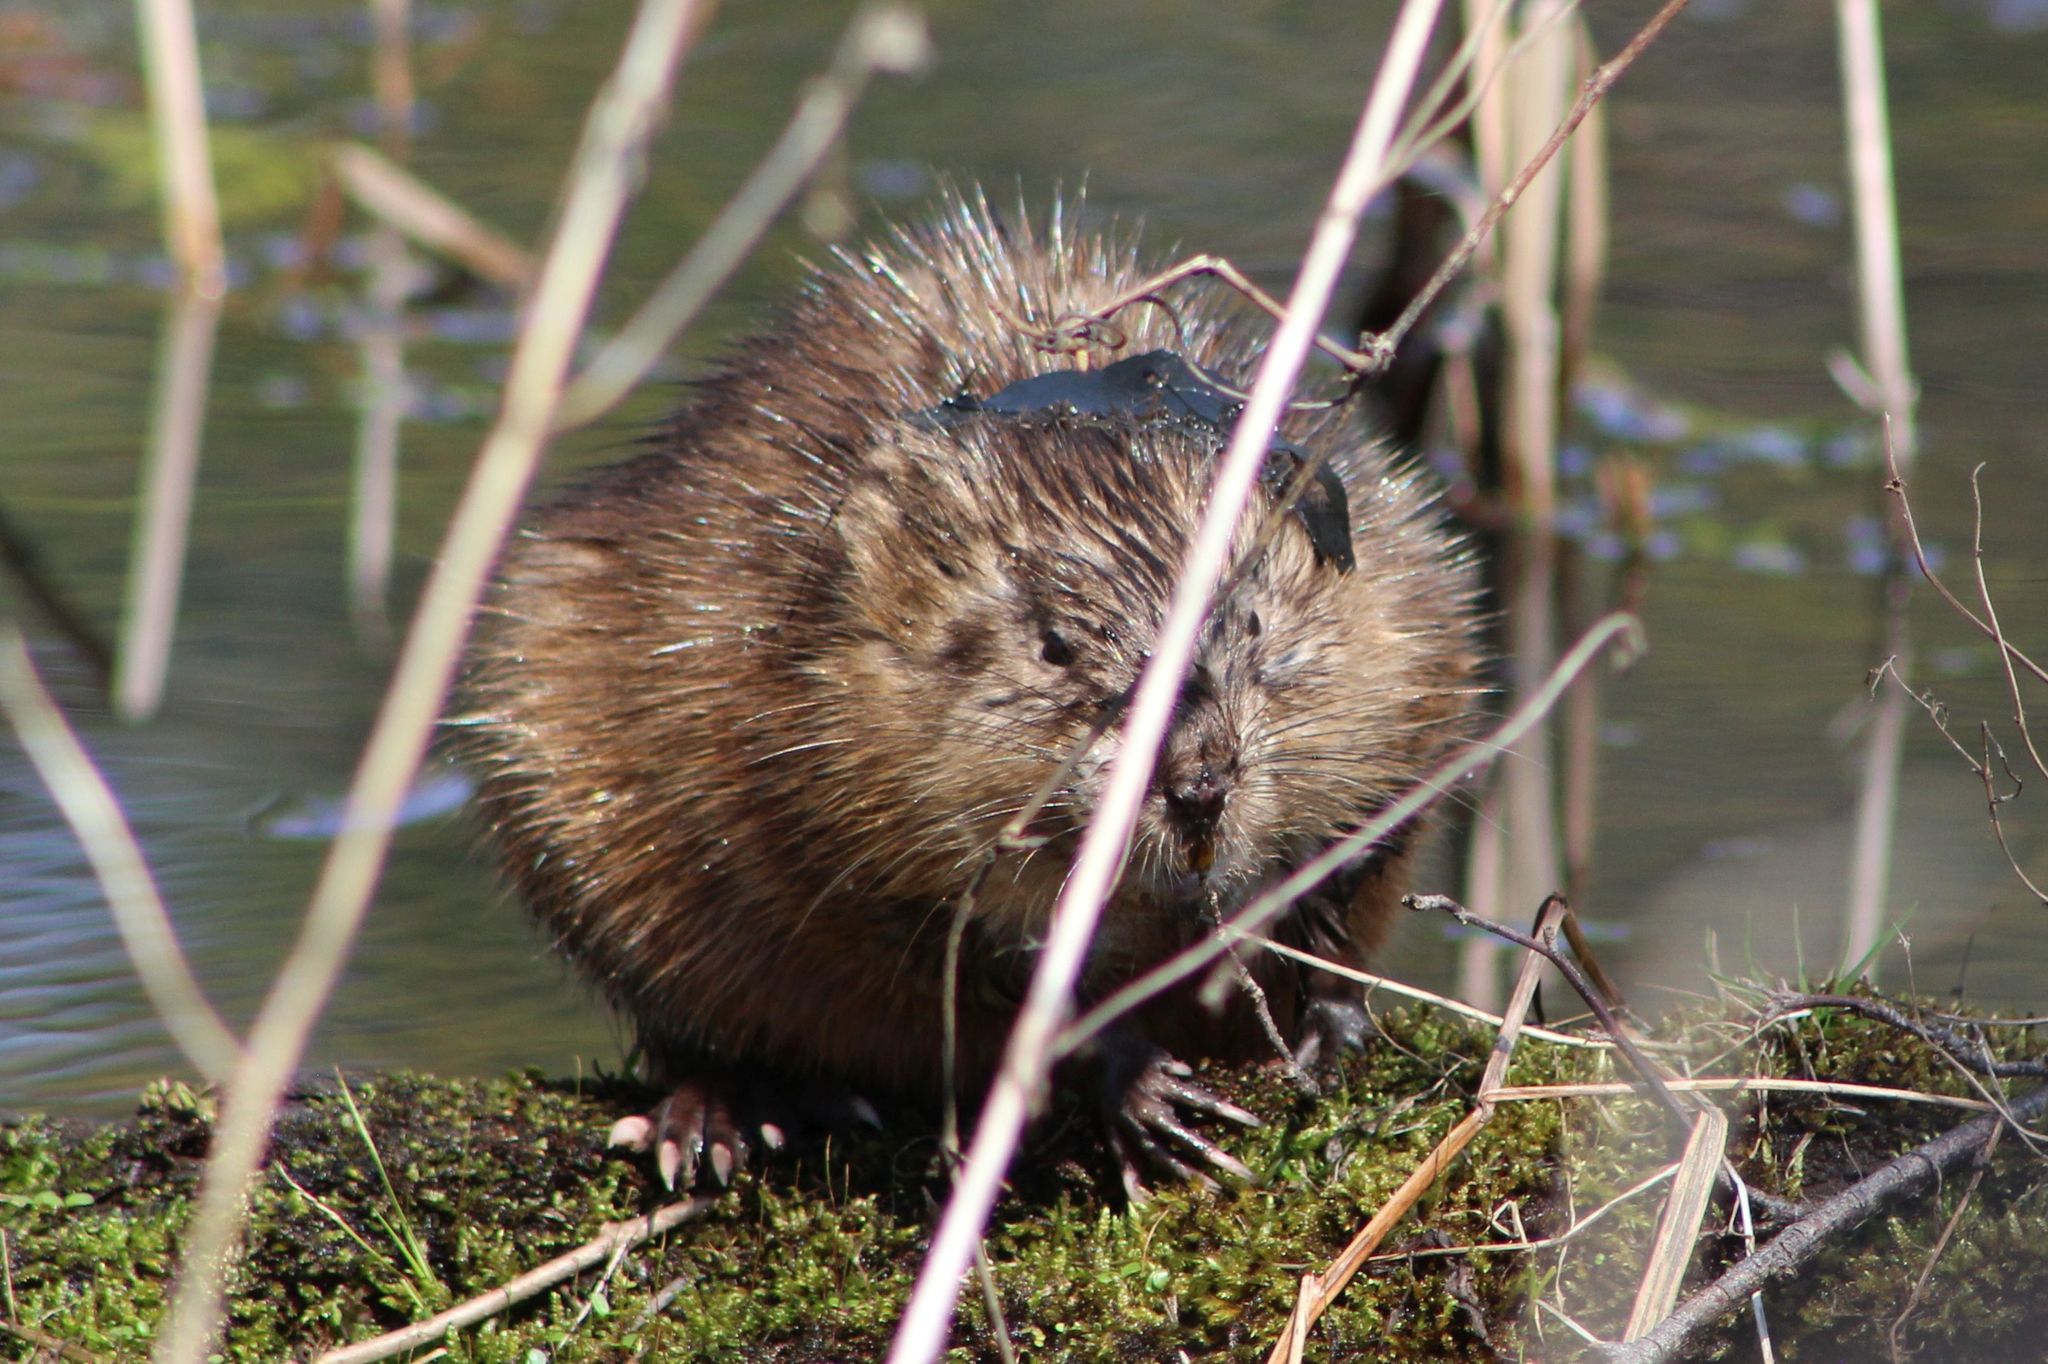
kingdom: Animalia
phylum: Chordata
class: Mammalia
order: Rodentia
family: Cricetidae
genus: Ondatra
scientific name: Ondatra zibethicus
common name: Muskrat
